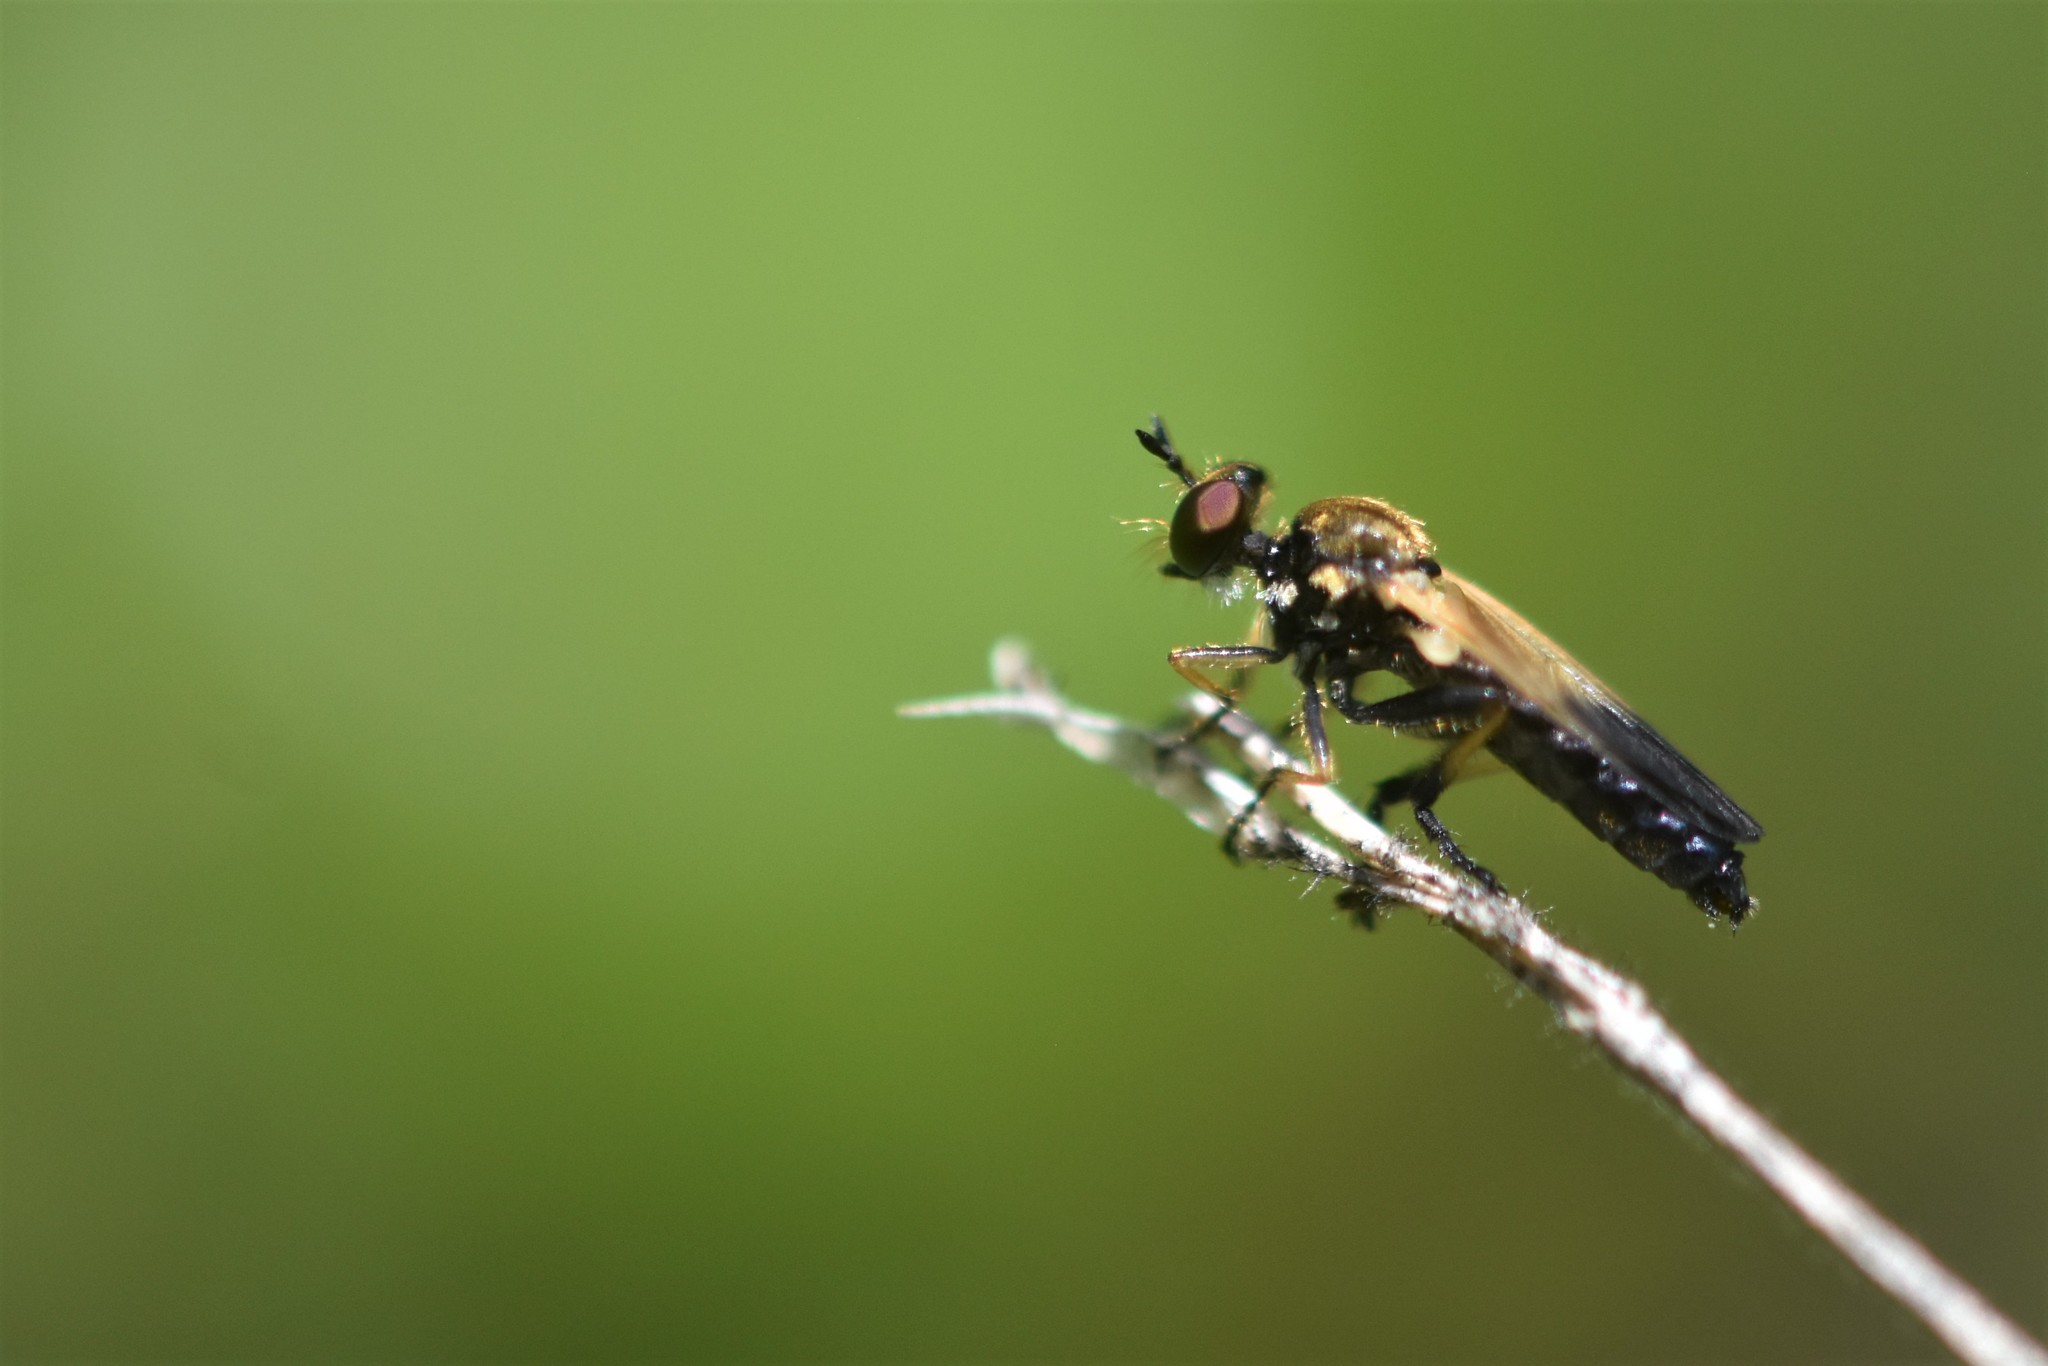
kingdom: Animalia
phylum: Arthropoda
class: Insecta
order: Diptera
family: Asilidae
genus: Eudioctria
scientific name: Eudioctria sackeni
